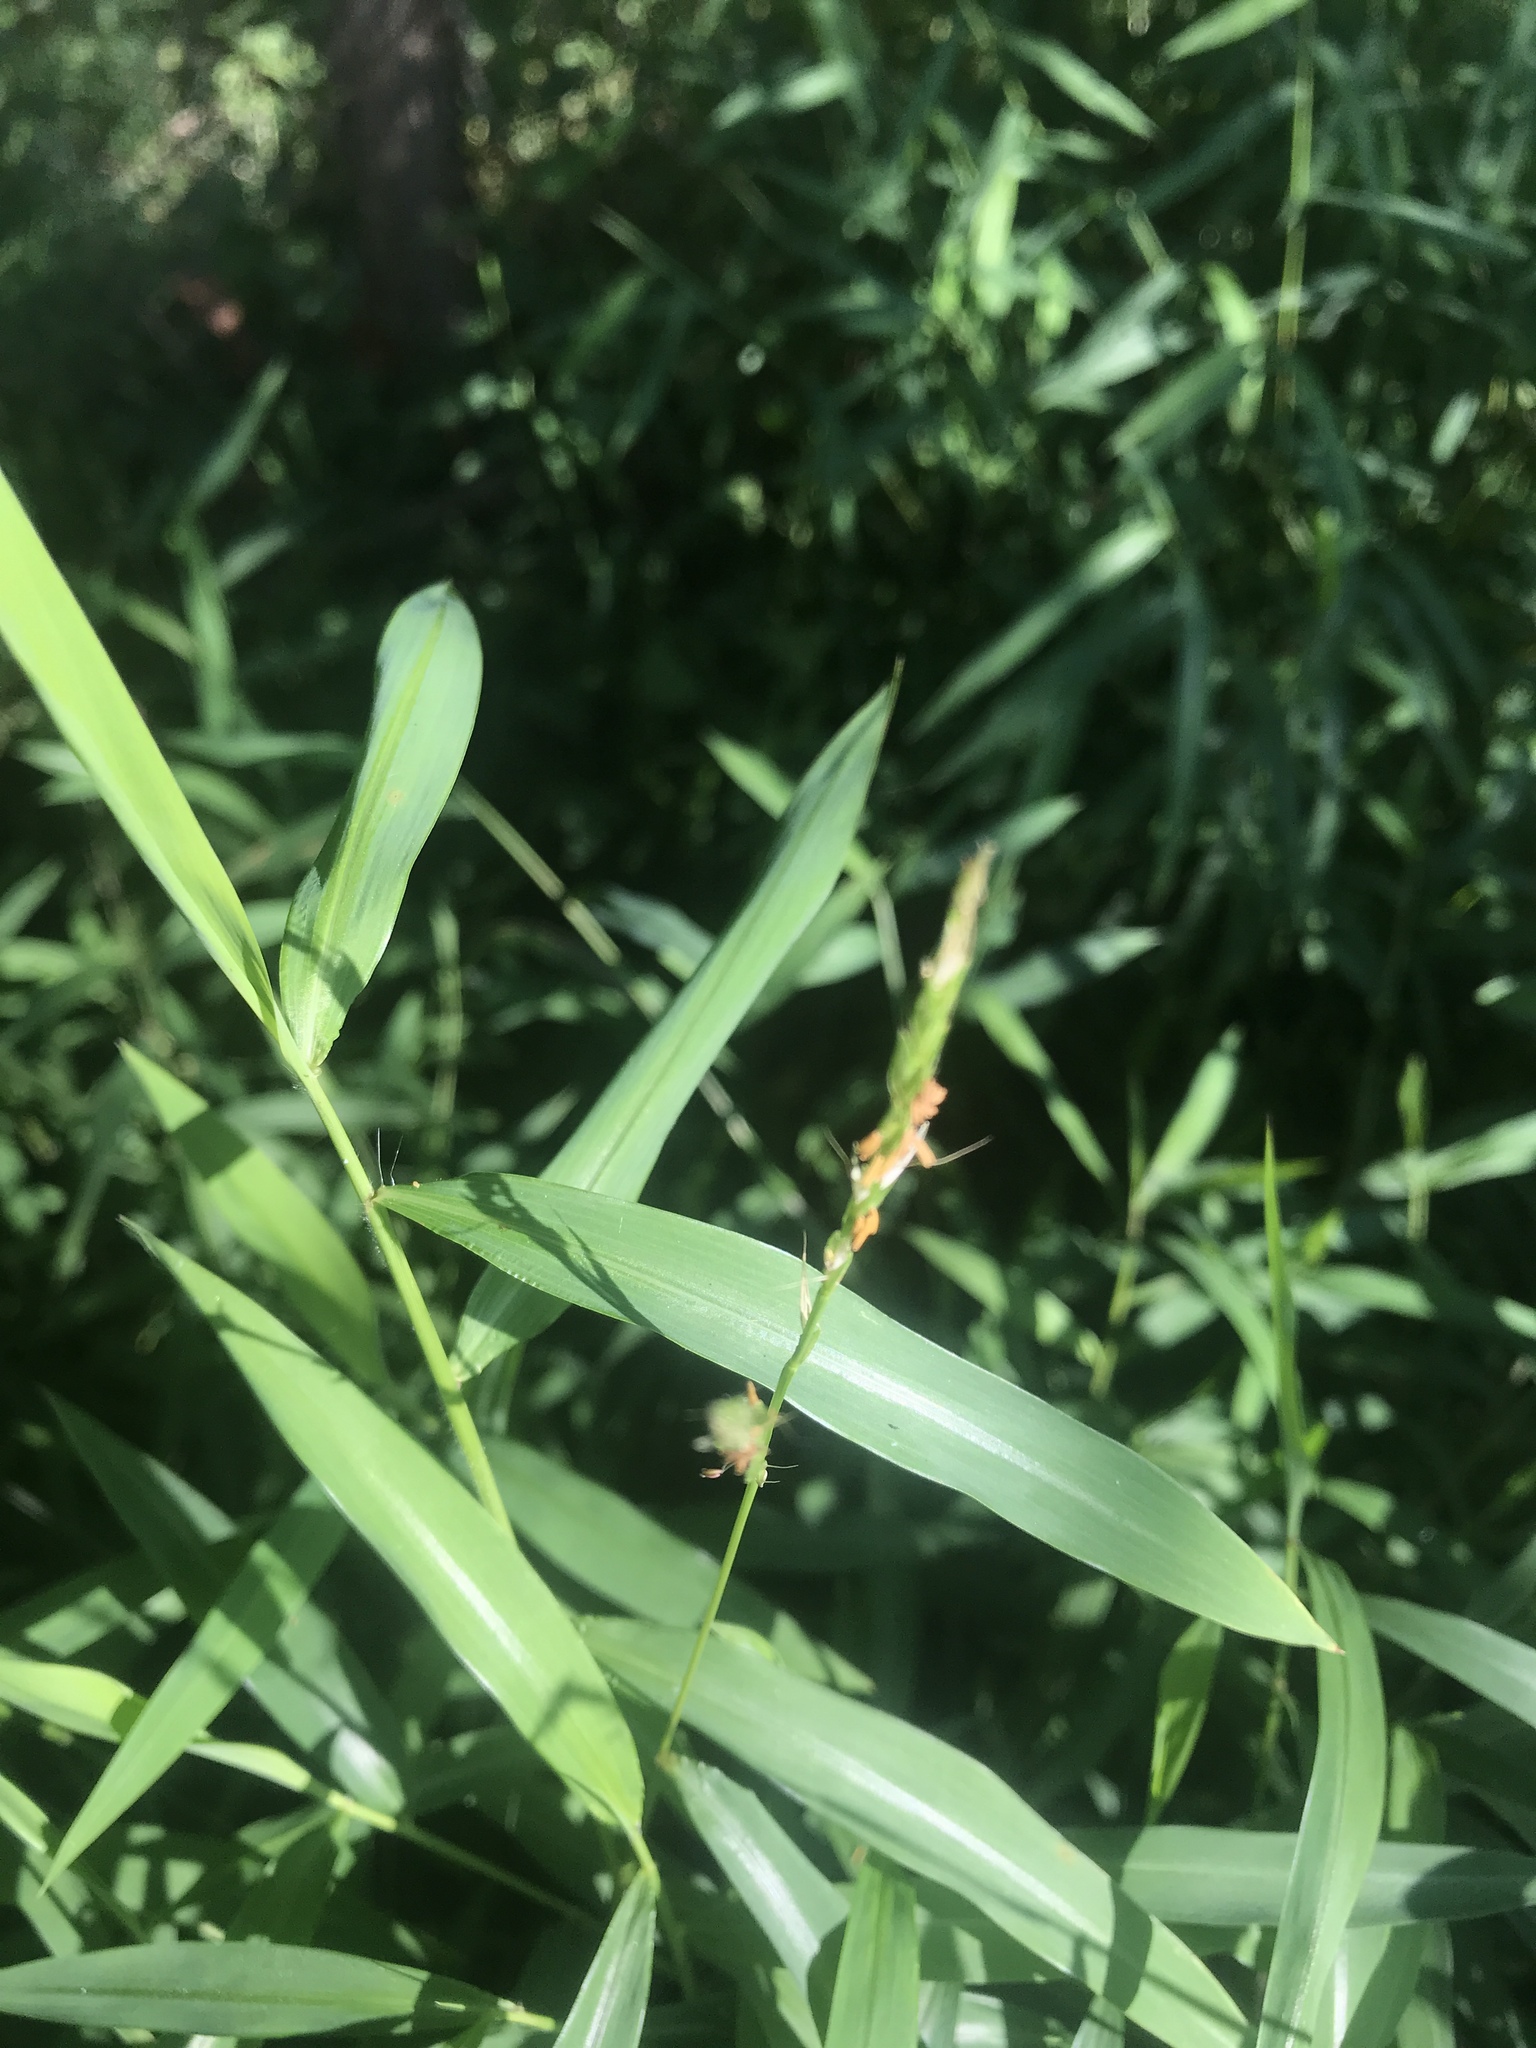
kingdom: Plantae
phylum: Tracheophyta
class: Liliopsida
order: Poales
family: Poaceae
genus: Microstegium
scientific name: Microstegium vimineum
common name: Japanese stiltgrass
